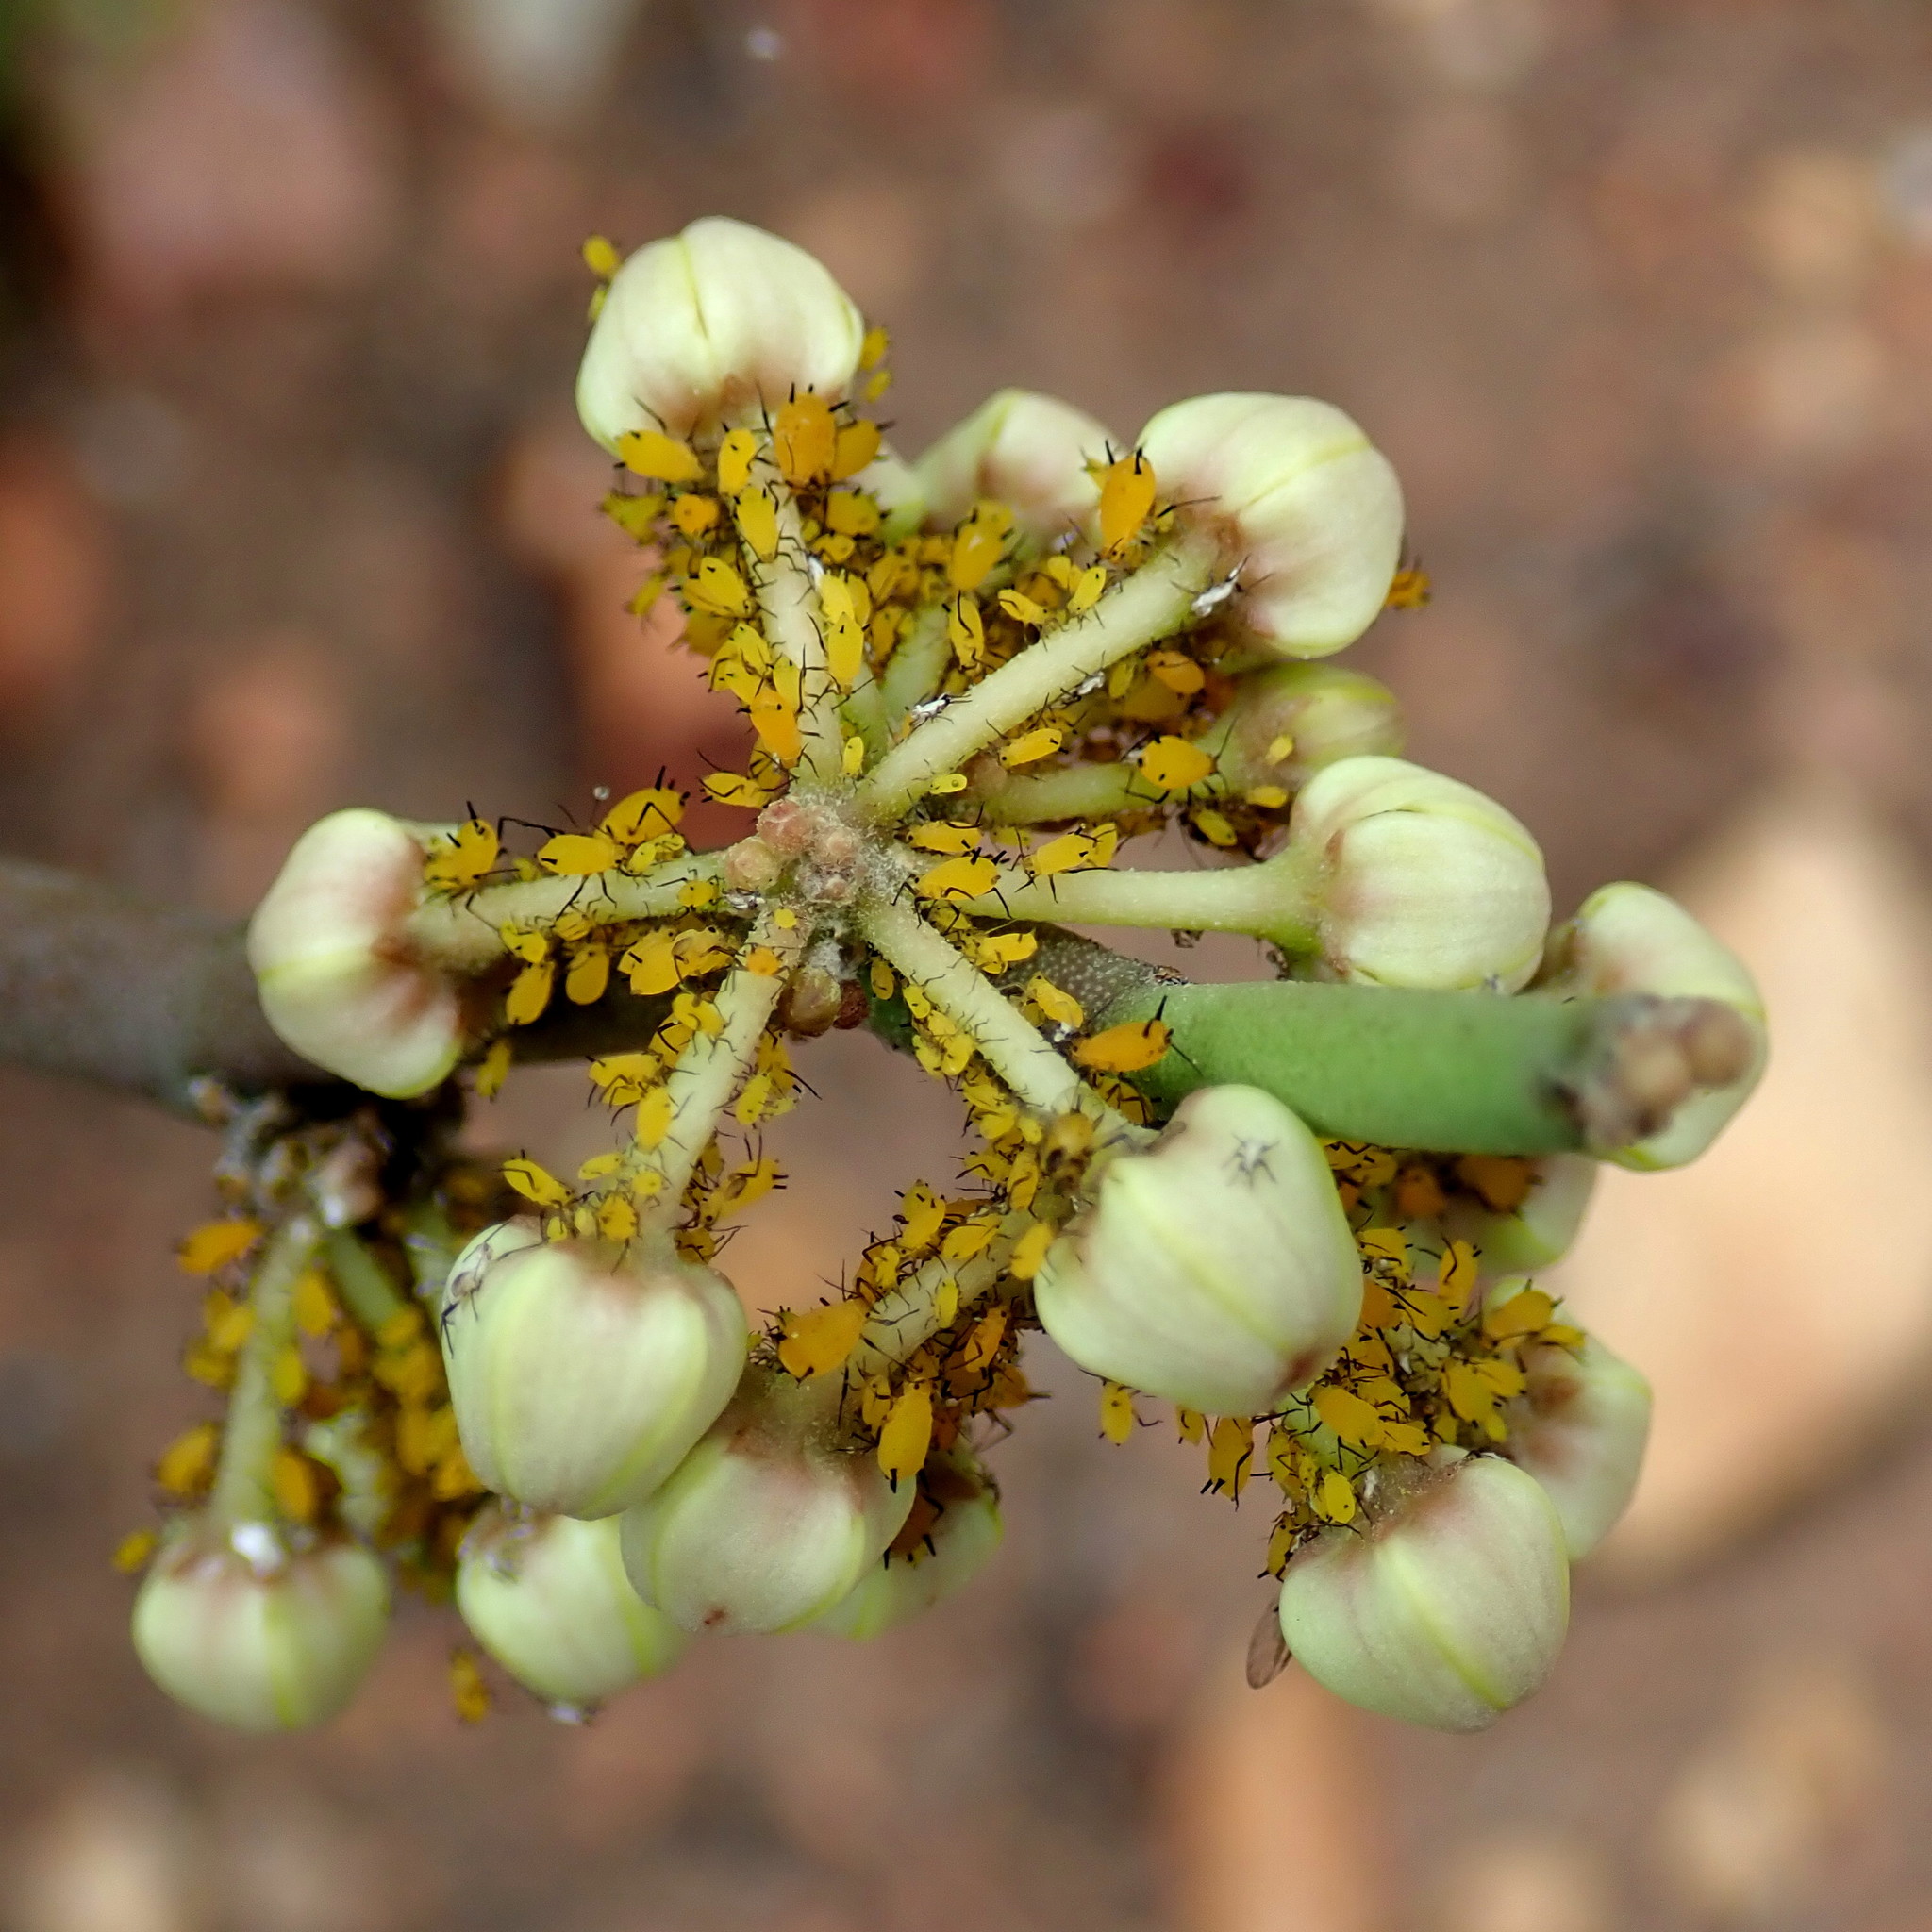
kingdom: Plantae
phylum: Tracheophyta
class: Magnoliopsida
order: Gentianales
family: Apocynaceae
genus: Cynanchum
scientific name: Cynanchum viminale
